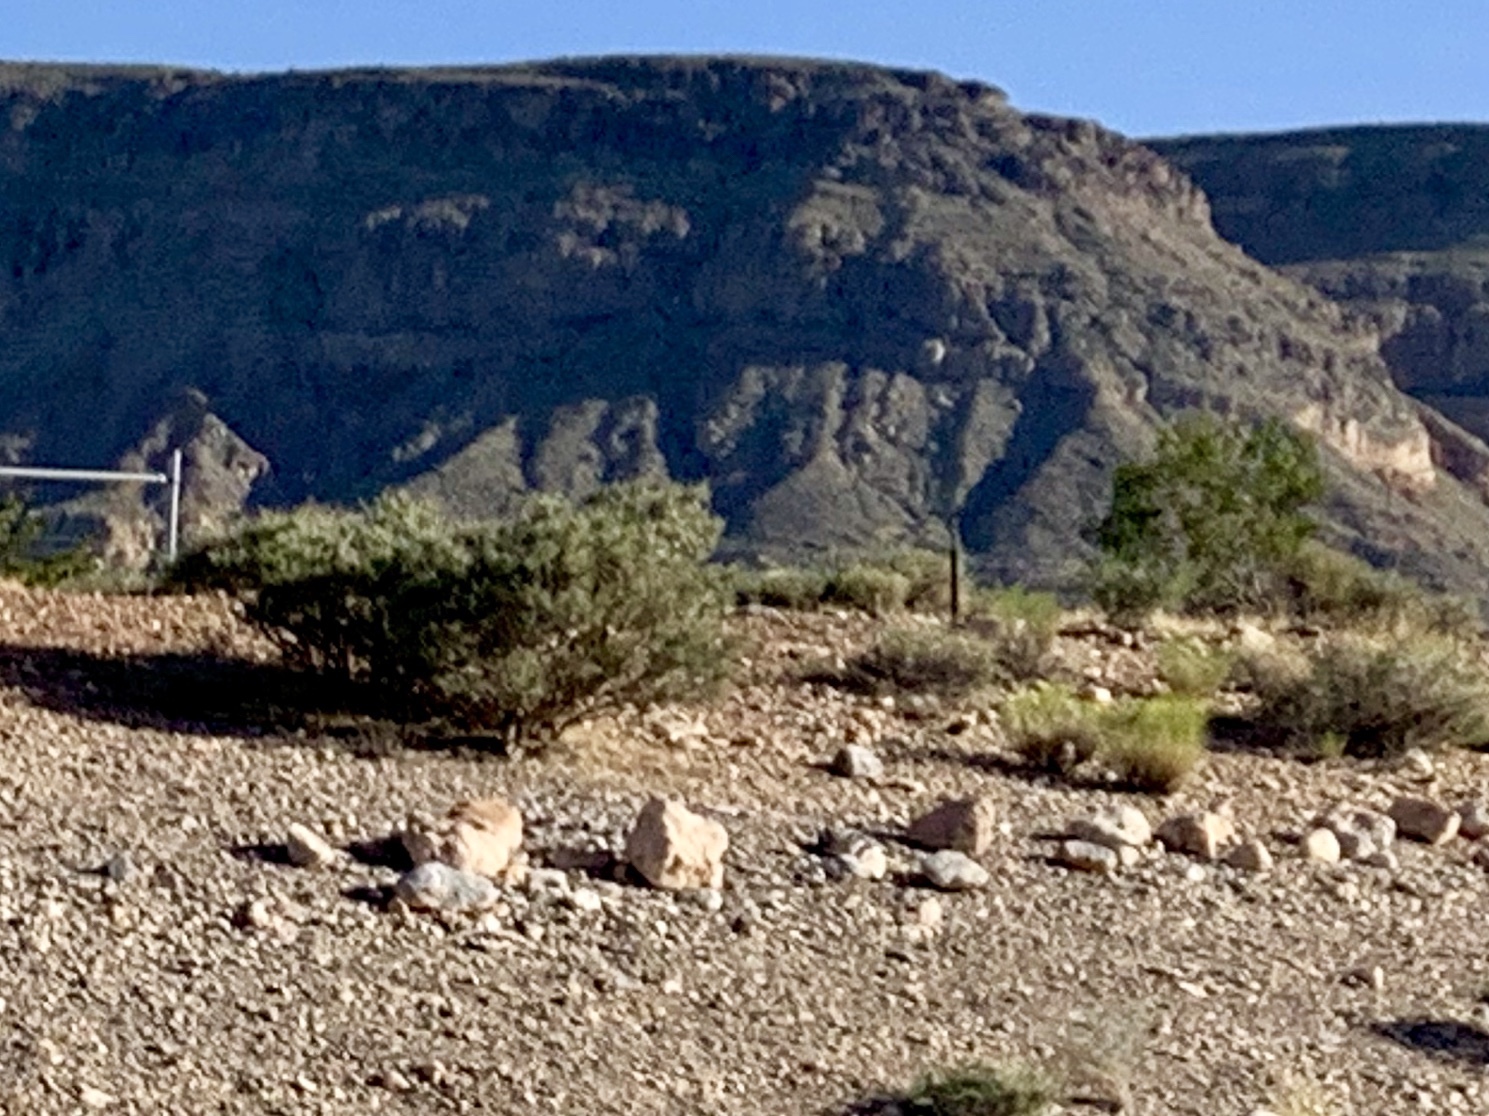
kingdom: Plantae
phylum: Tracheophyta
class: Magnoliopsida
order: Zygophyllales
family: Zygophyllaceae
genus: Larrea
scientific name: Larrea tridentata
